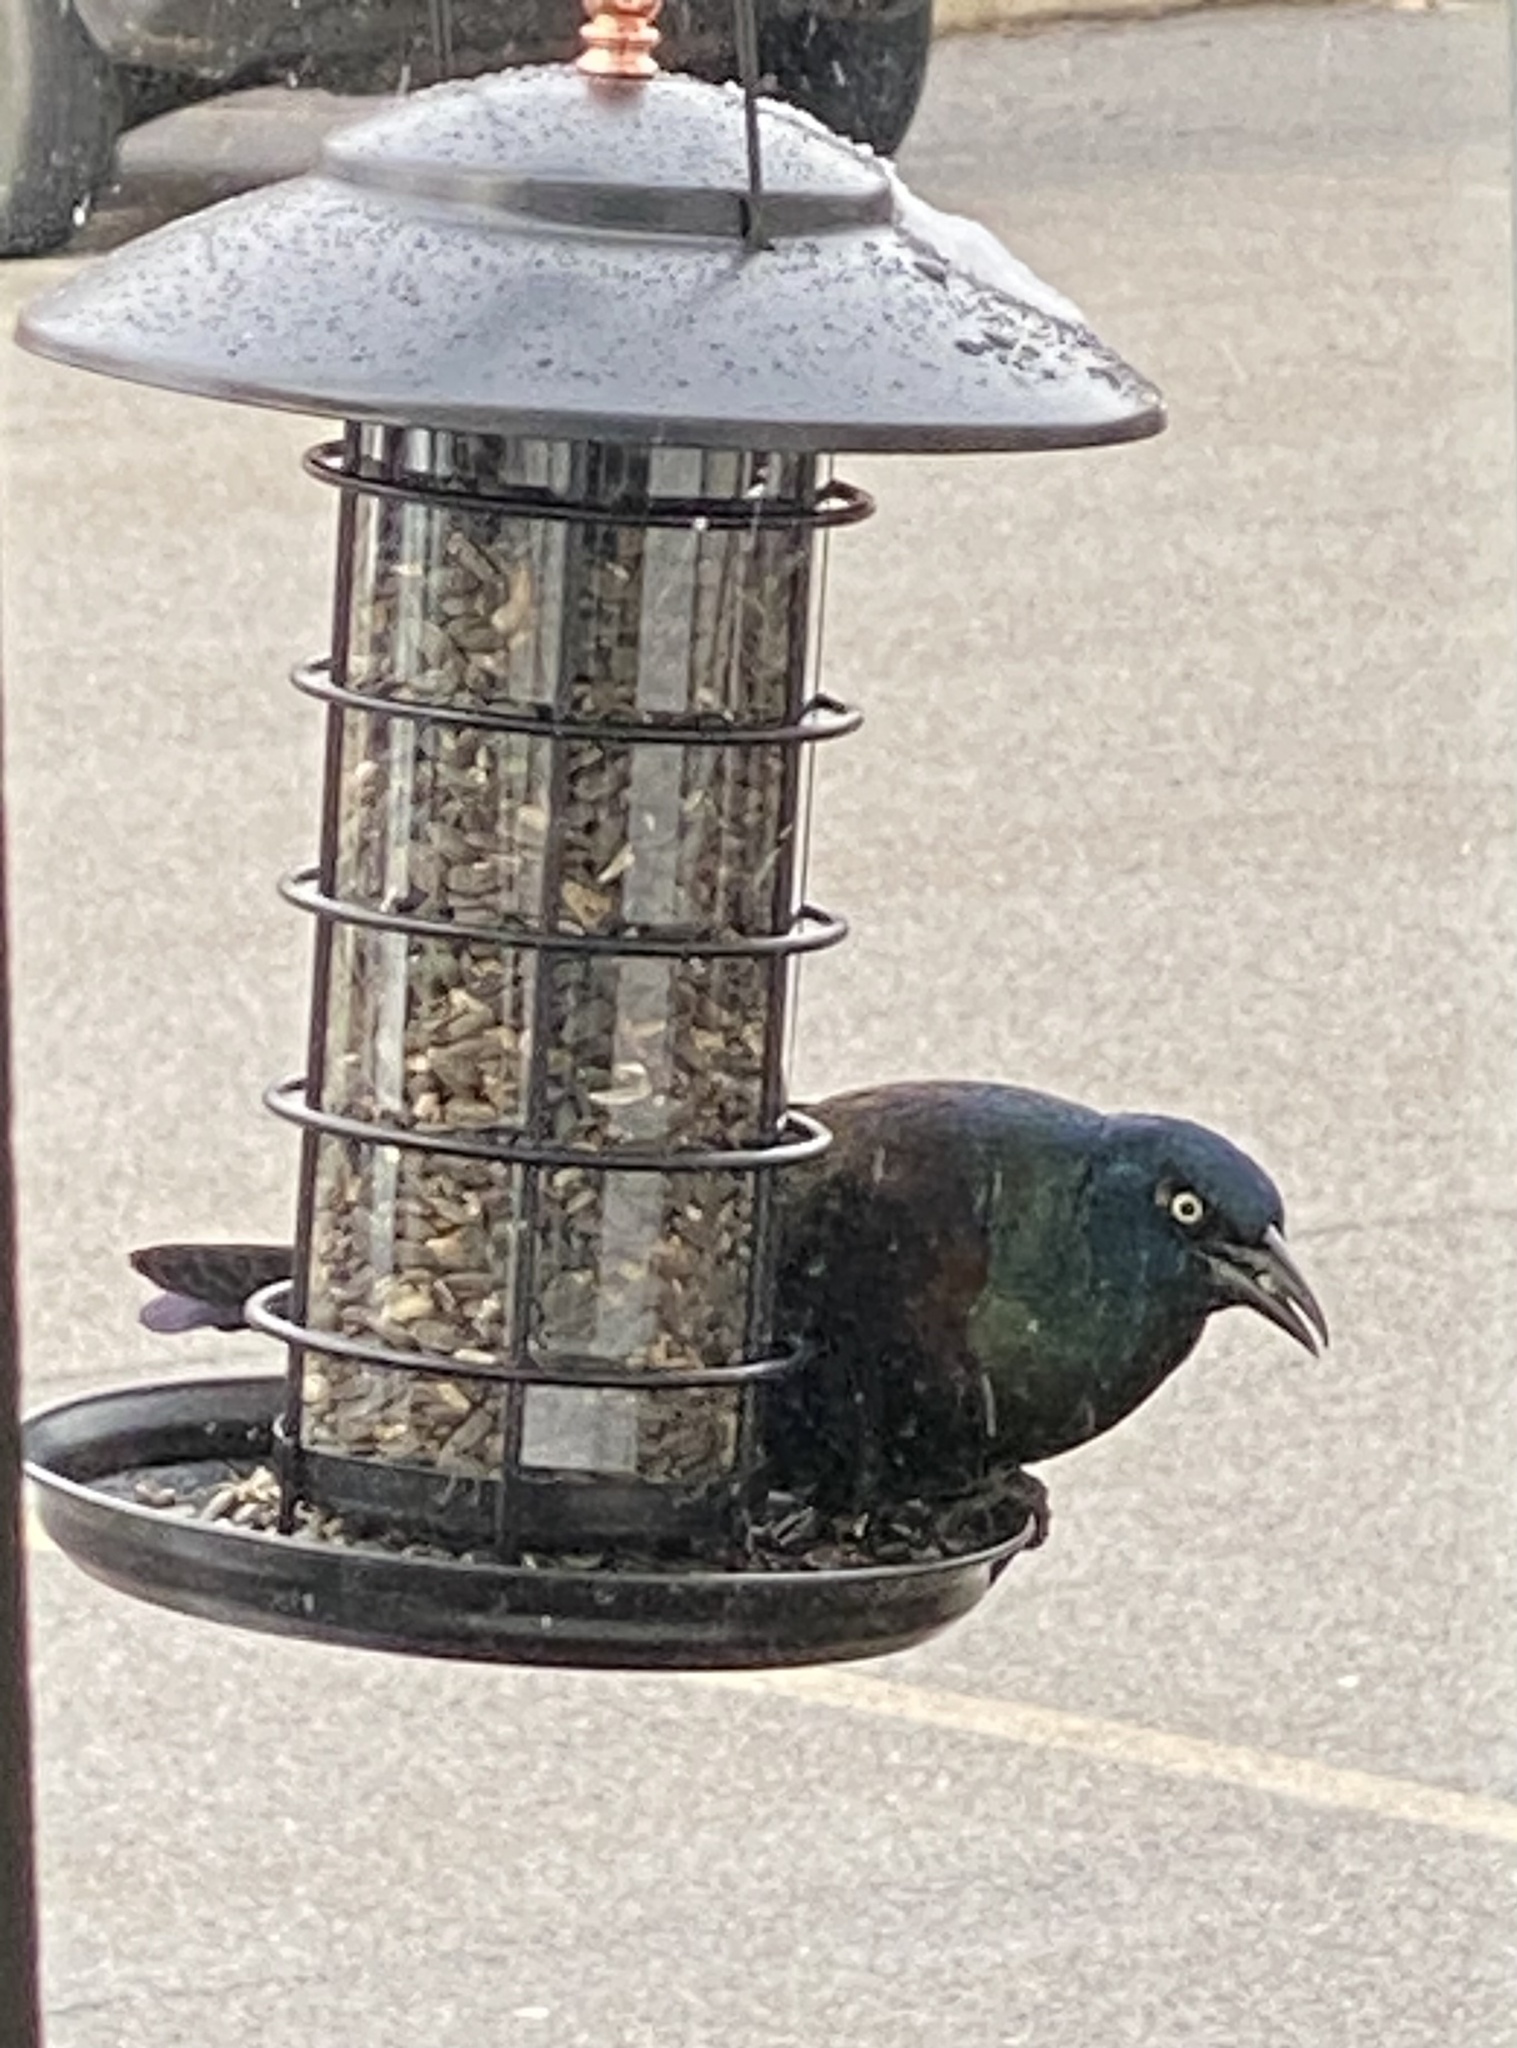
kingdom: Animalia
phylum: Chordata
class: Aves
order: Passeriformes
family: Icteridae
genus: Quiscalus
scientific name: Quiscalus quiscula
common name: Common grackle
